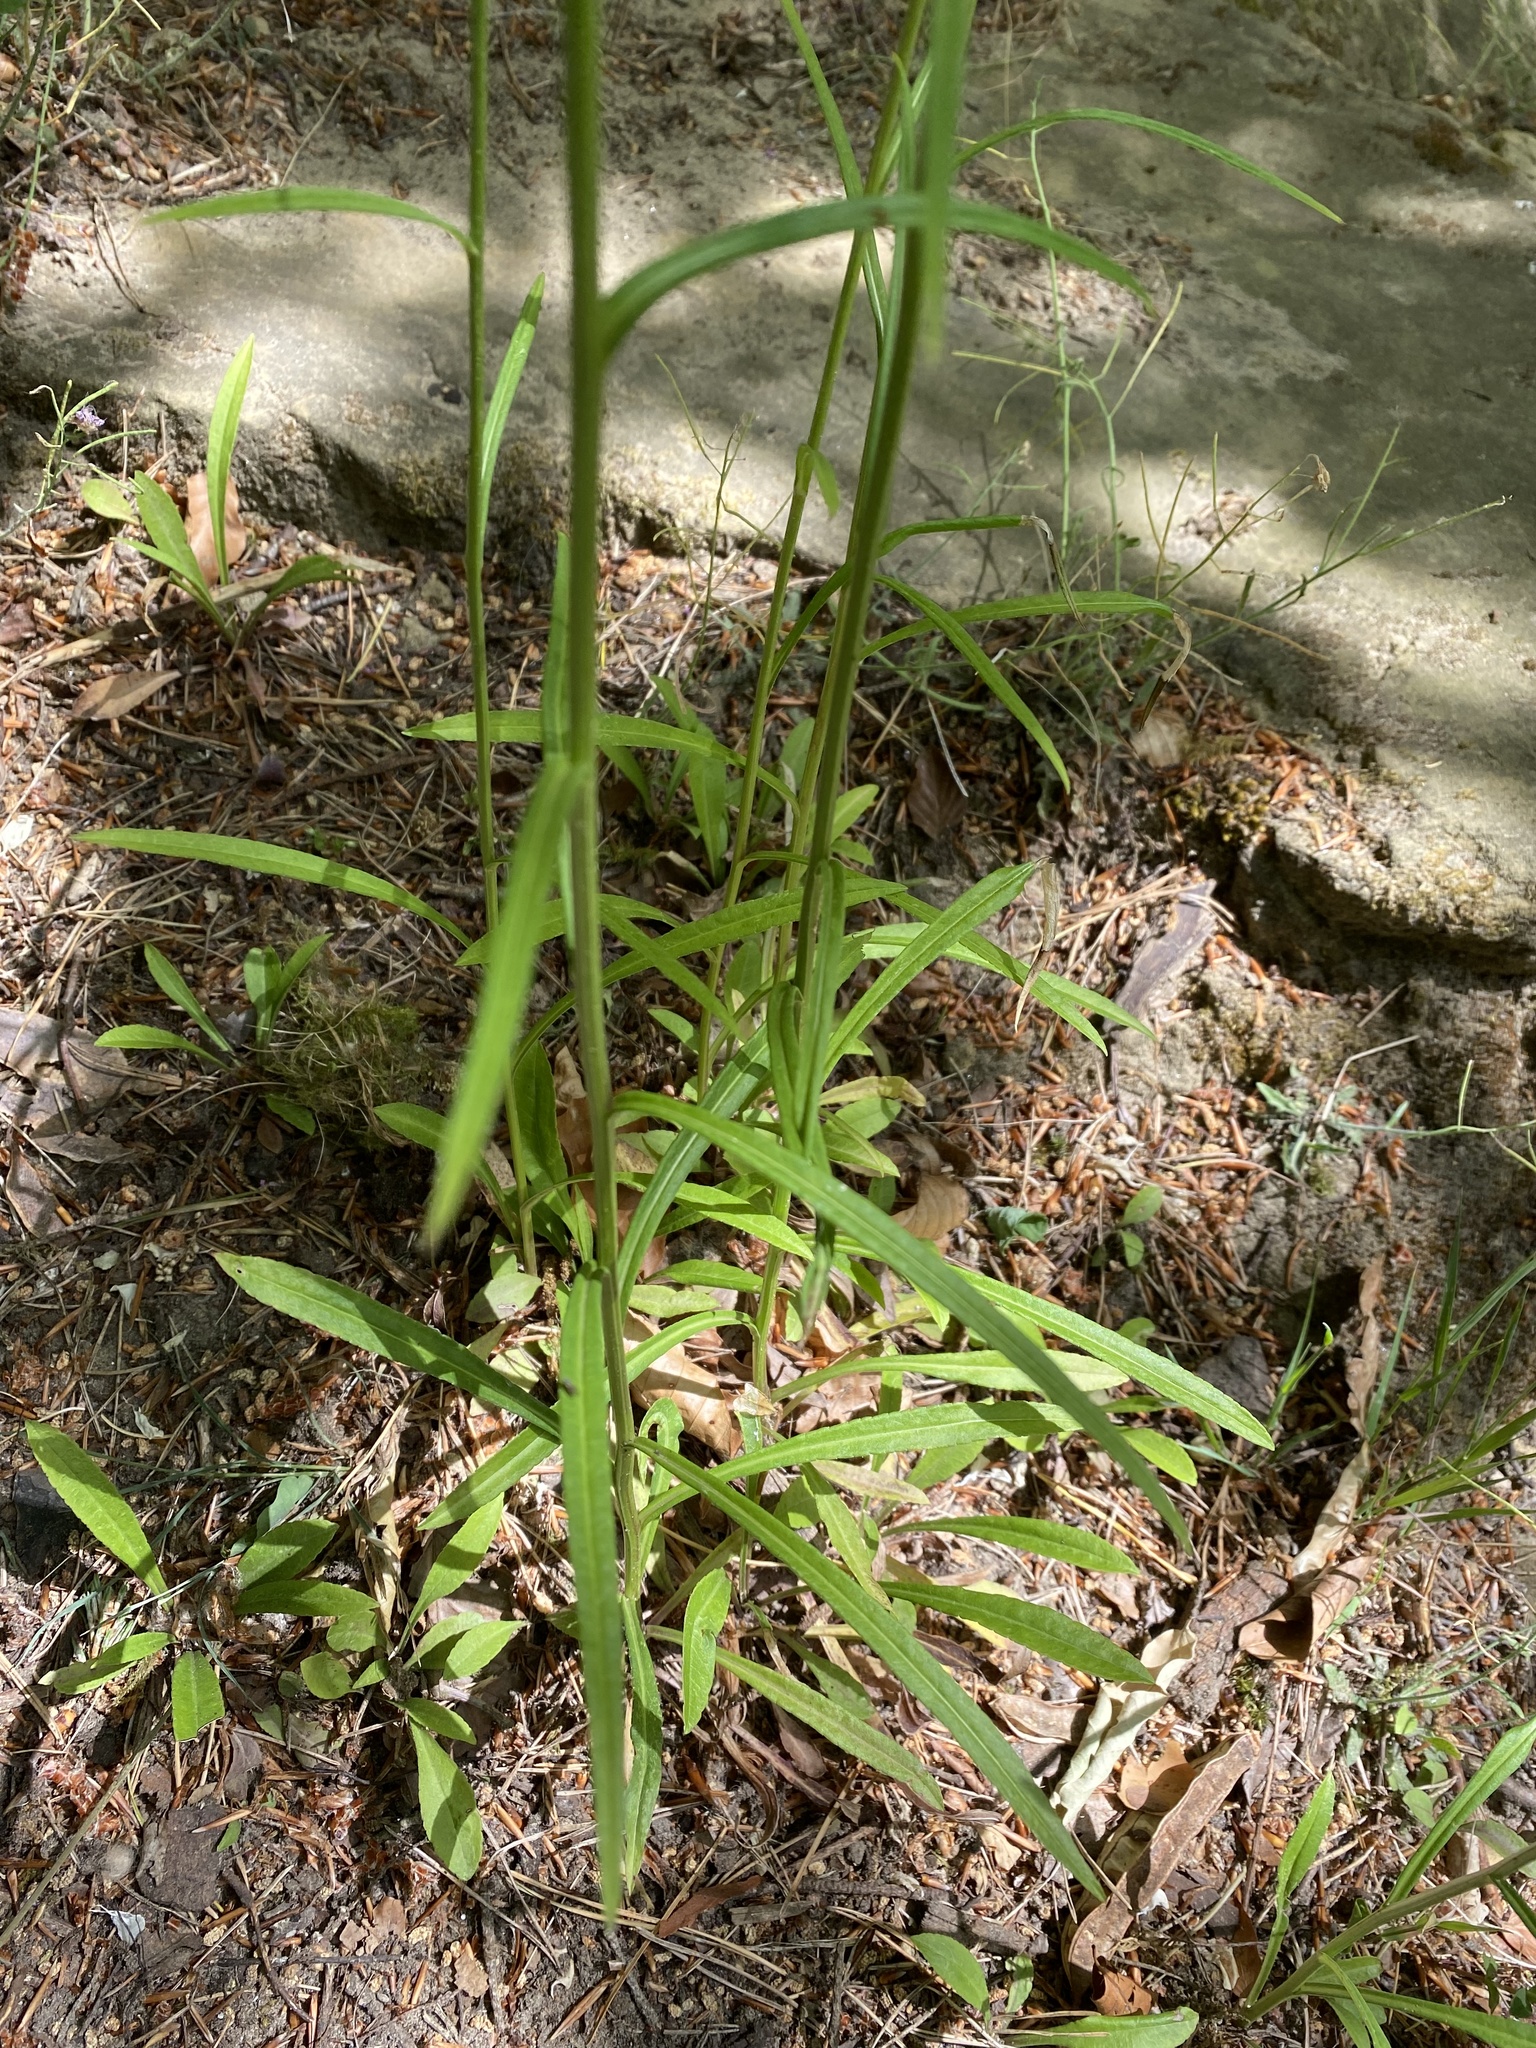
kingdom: Plantae
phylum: Tracheophyta
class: Magnoliopsida
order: Asterales
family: Campanulaceae
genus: Campanula
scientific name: Campanula persicifolia
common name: Peach-leaved bellflower
